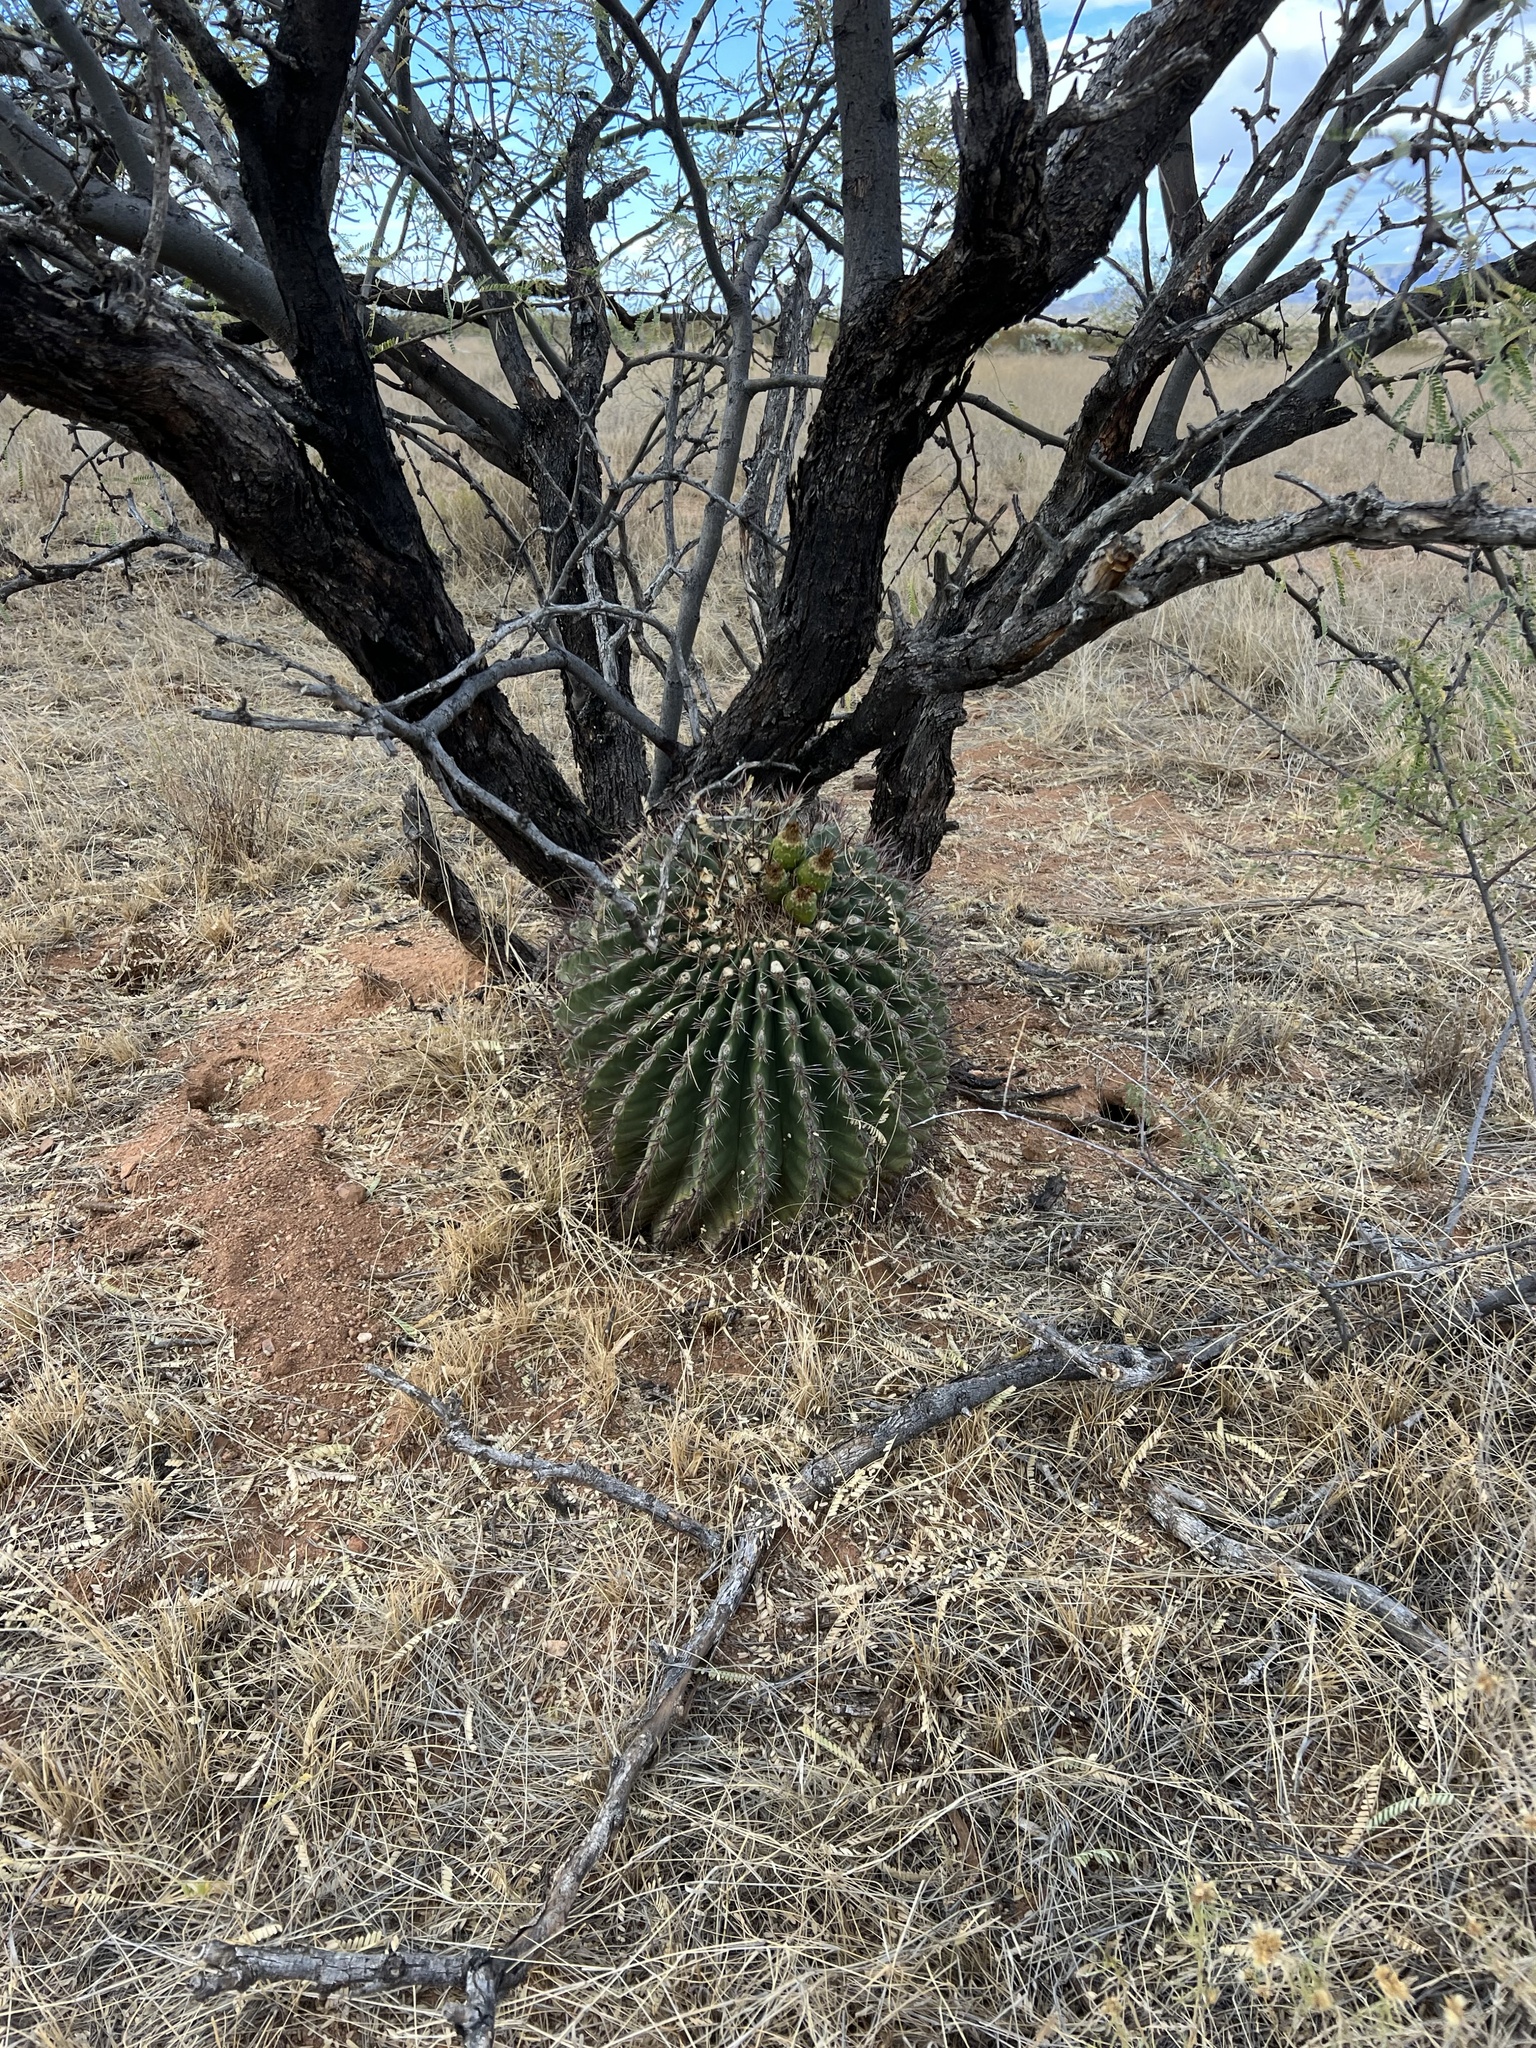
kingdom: Plantae
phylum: Tracheophyta
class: Magnoliopsida
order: Caryophyllales
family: Cactaceae
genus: Ferocactus
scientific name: Ferocactus wislizeni
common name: Candy barrel cactus
